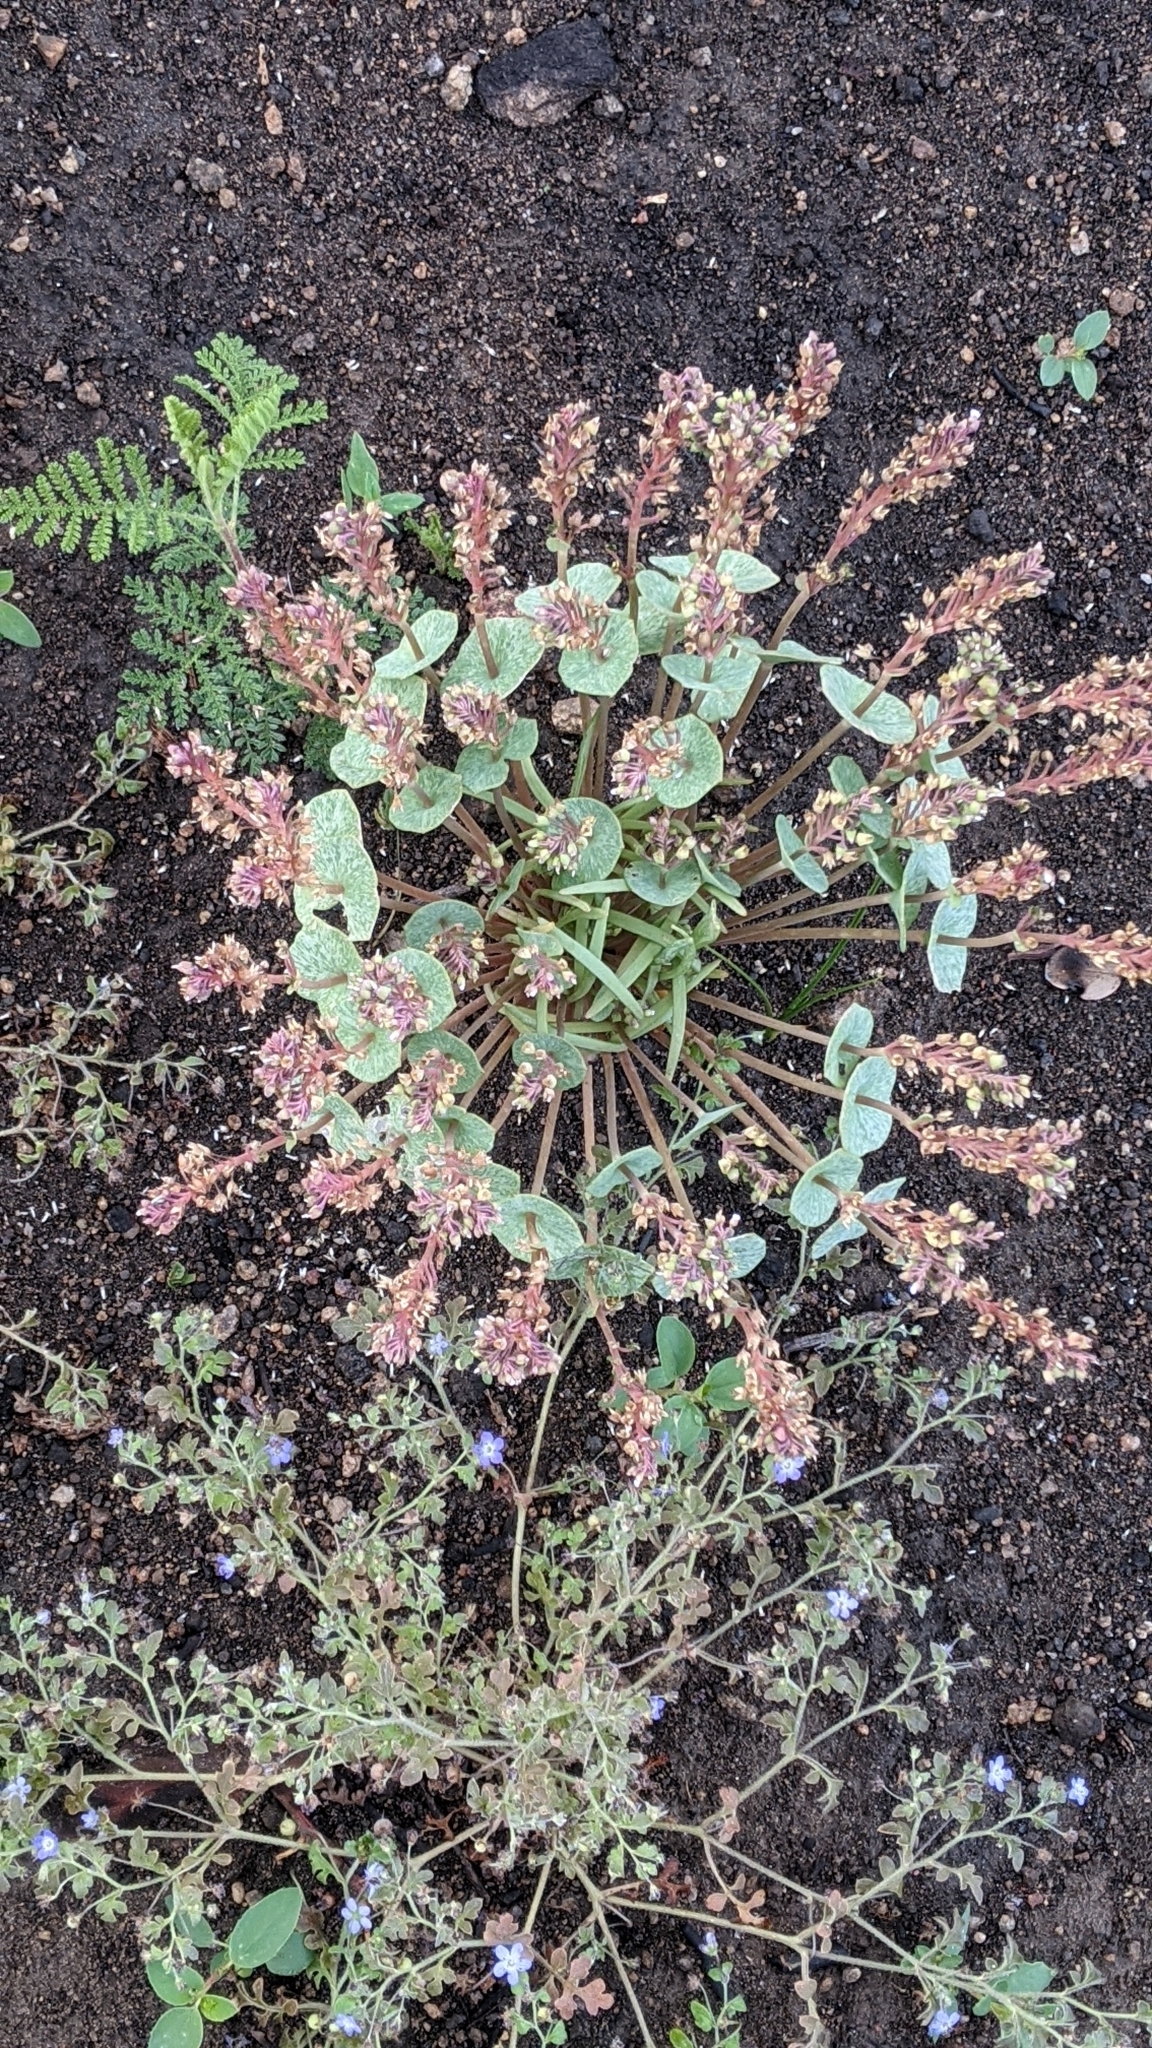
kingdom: Plantae
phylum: Tracheophyta
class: Magnoliopsida
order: Caryophyllales
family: Montiaceae
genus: Claytonia
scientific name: Claytonia rubra
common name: Erubescent miner's-lettuce
